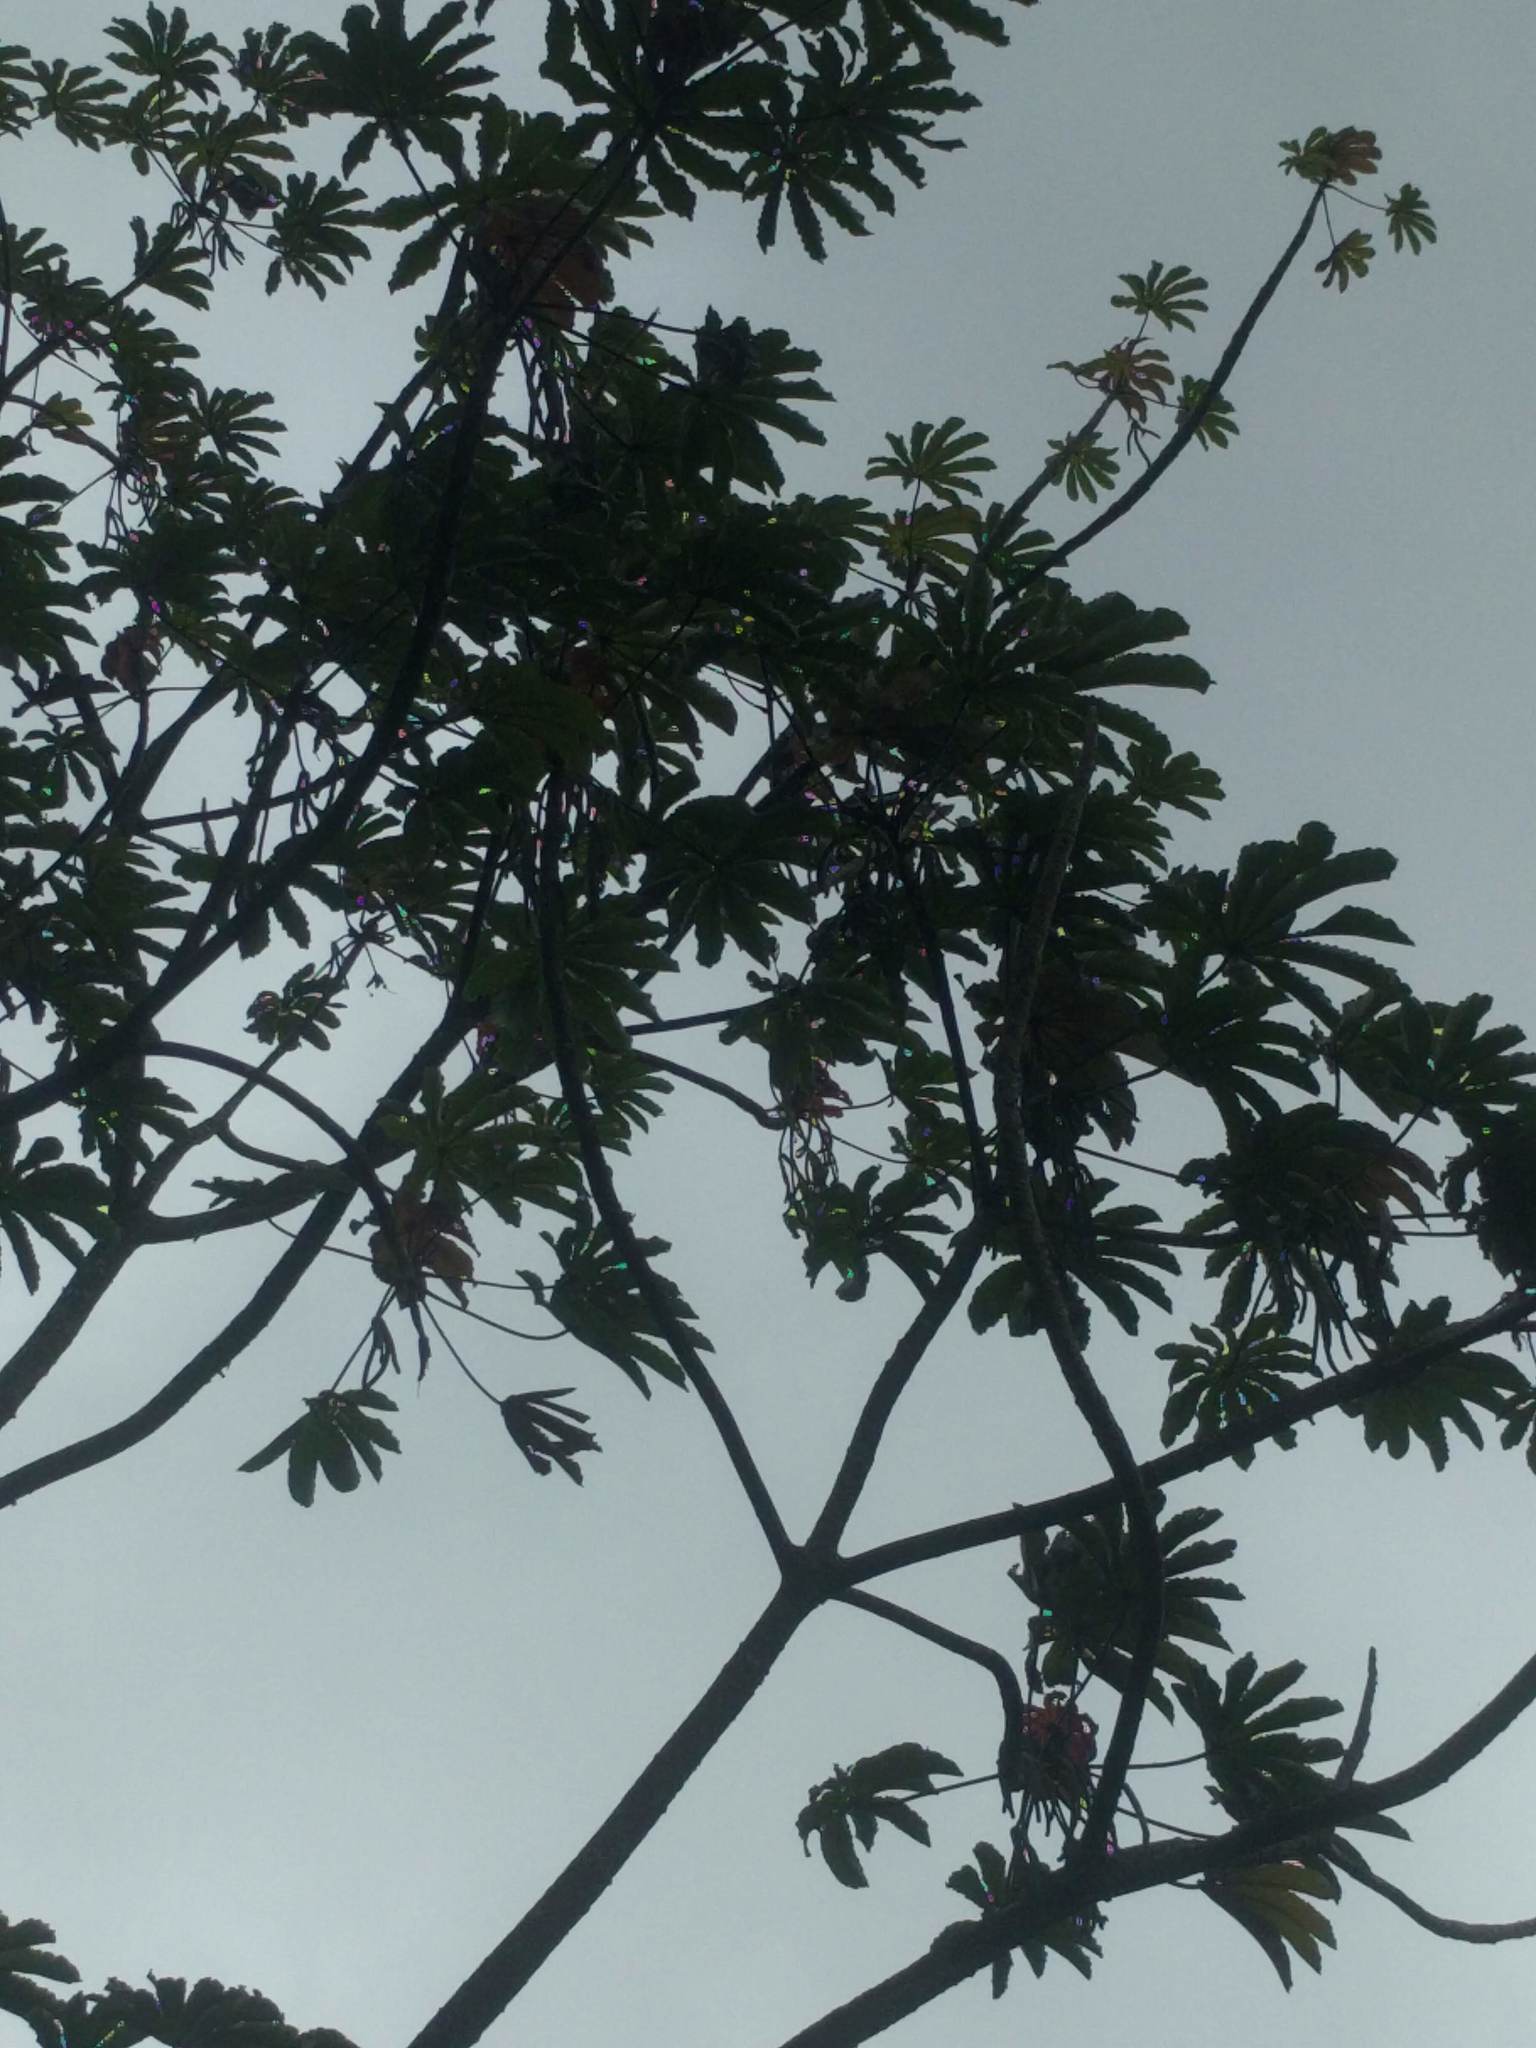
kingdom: Plantae
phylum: Tracheophyta
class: Magnoliopsida
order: Rosales
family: Urticaceae
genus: Cecropia
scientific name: Cecropia obtusifolia
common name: Trumpet tree
